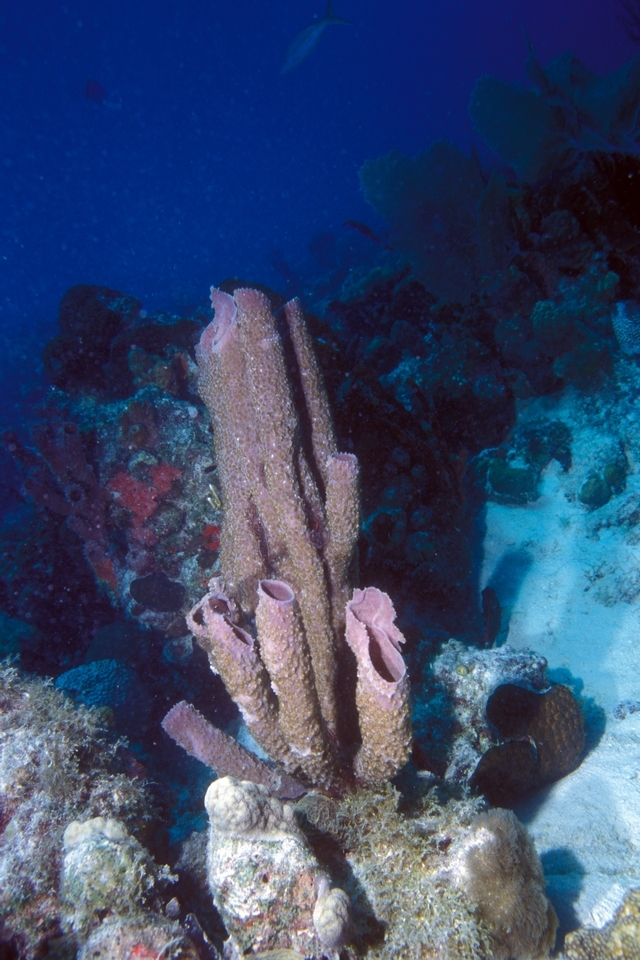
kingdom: Animalia
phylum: Porifera
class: Demospongiae
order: Haplosclerida
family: Callyspongiidae
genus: Callyspongia
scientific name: Callyspongia aculeata
